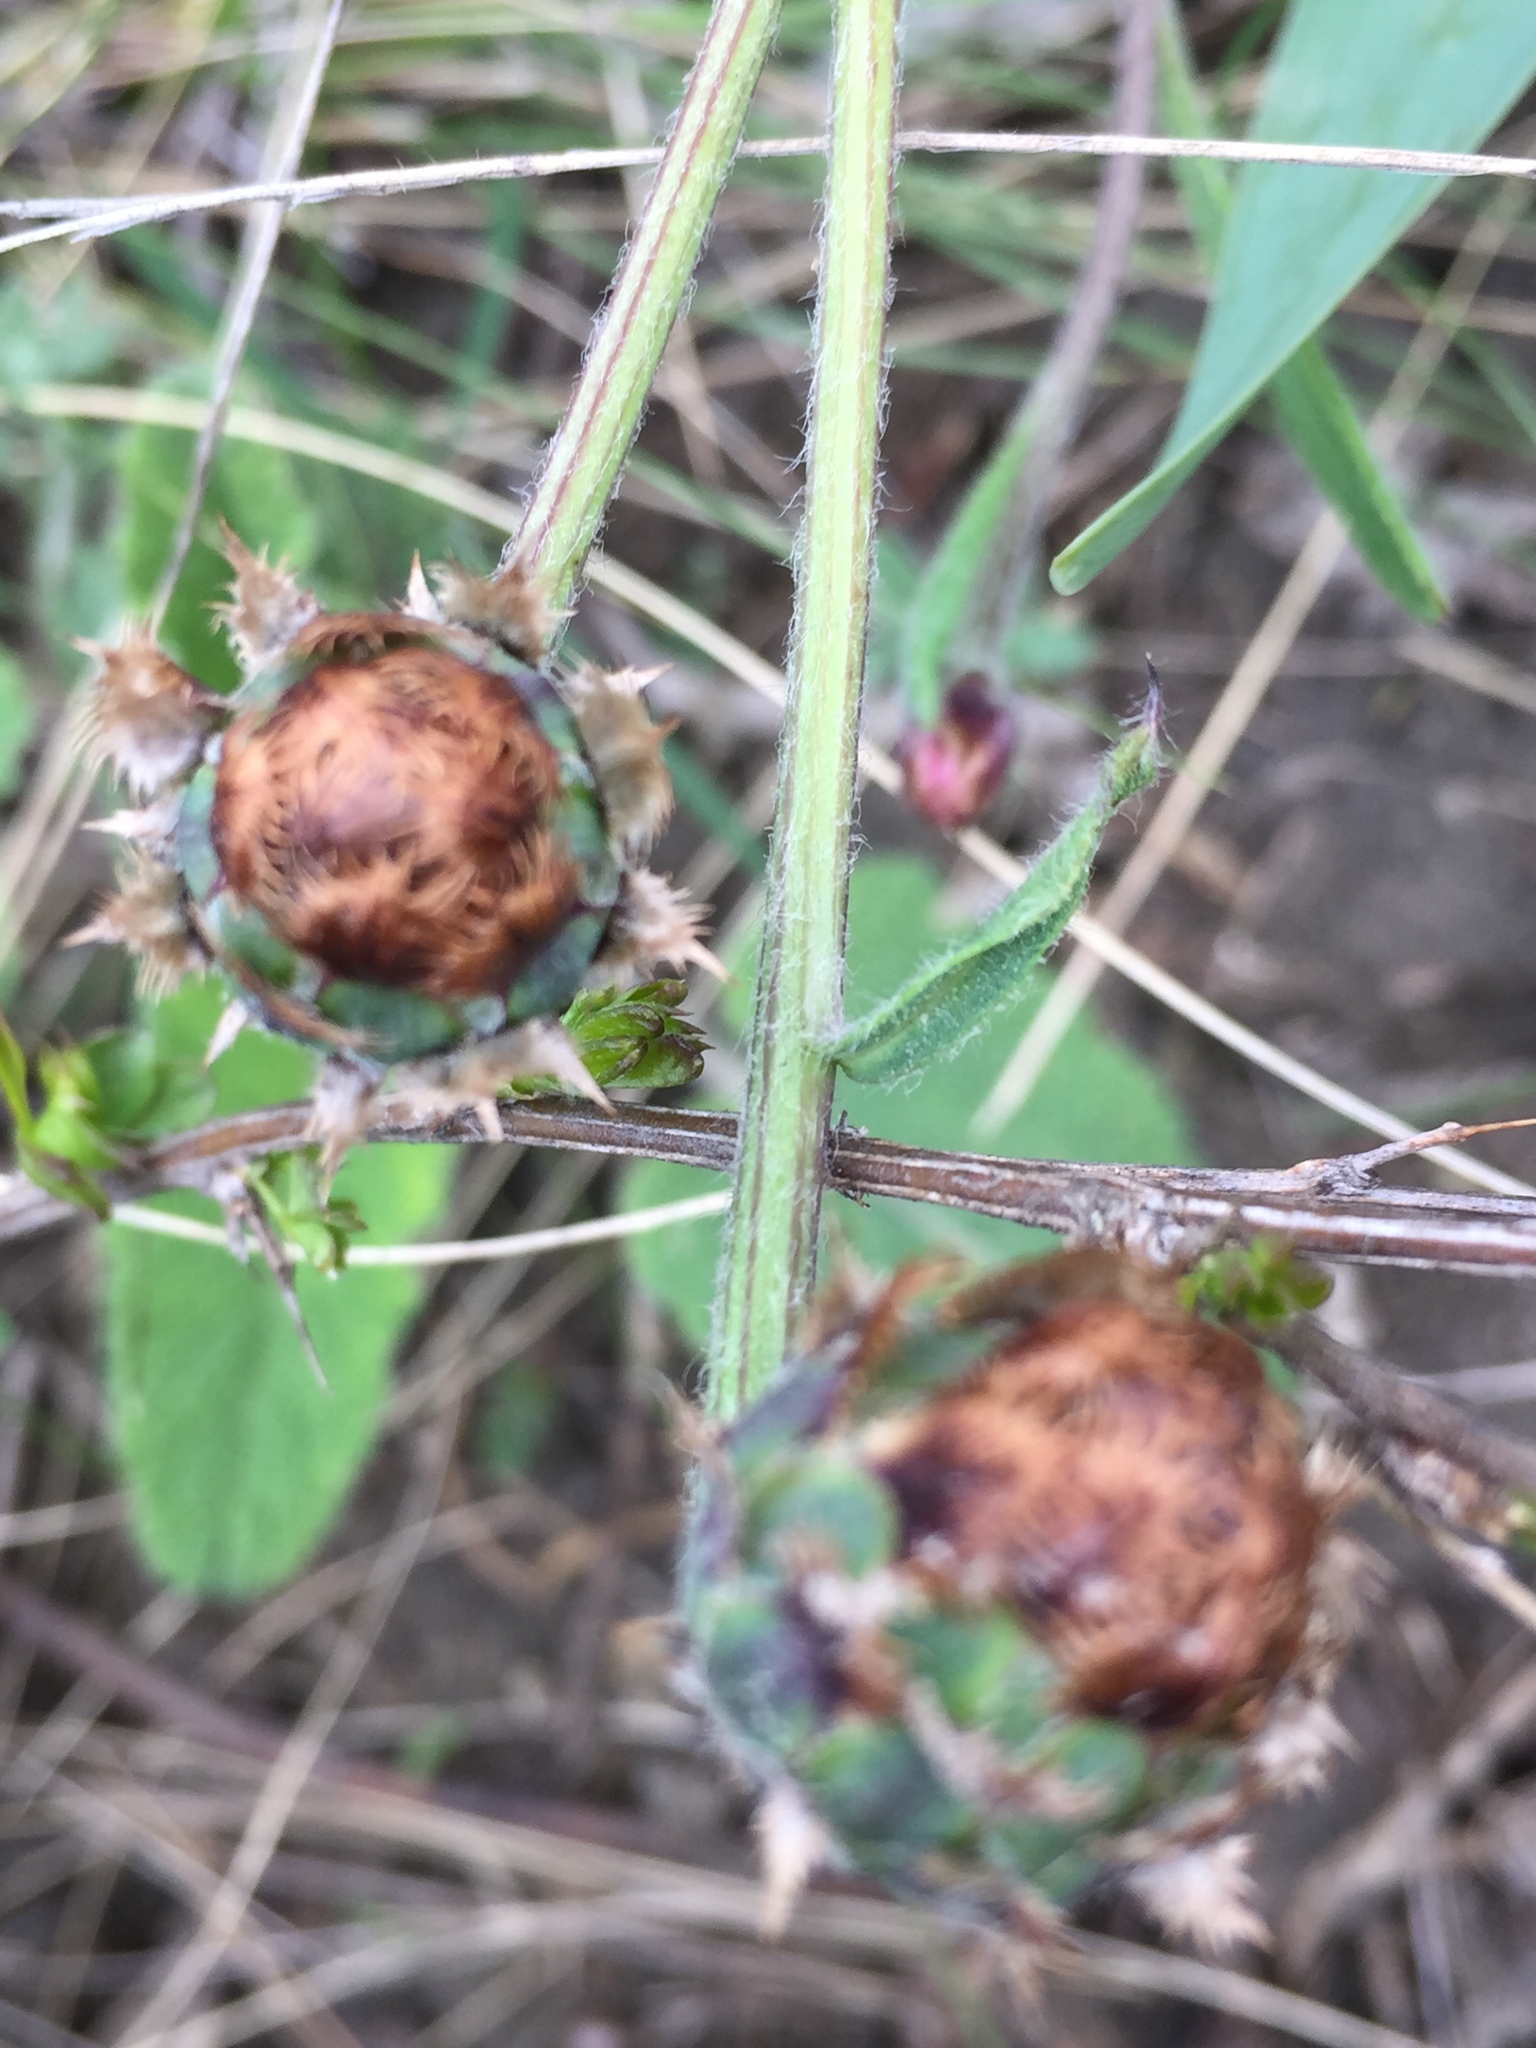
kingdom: Plantae
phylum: Tracheophyta
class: Magnoliopsida
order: Asterales
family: Asteraceae
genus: Psephellus
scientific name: Psephellus marschallianus
